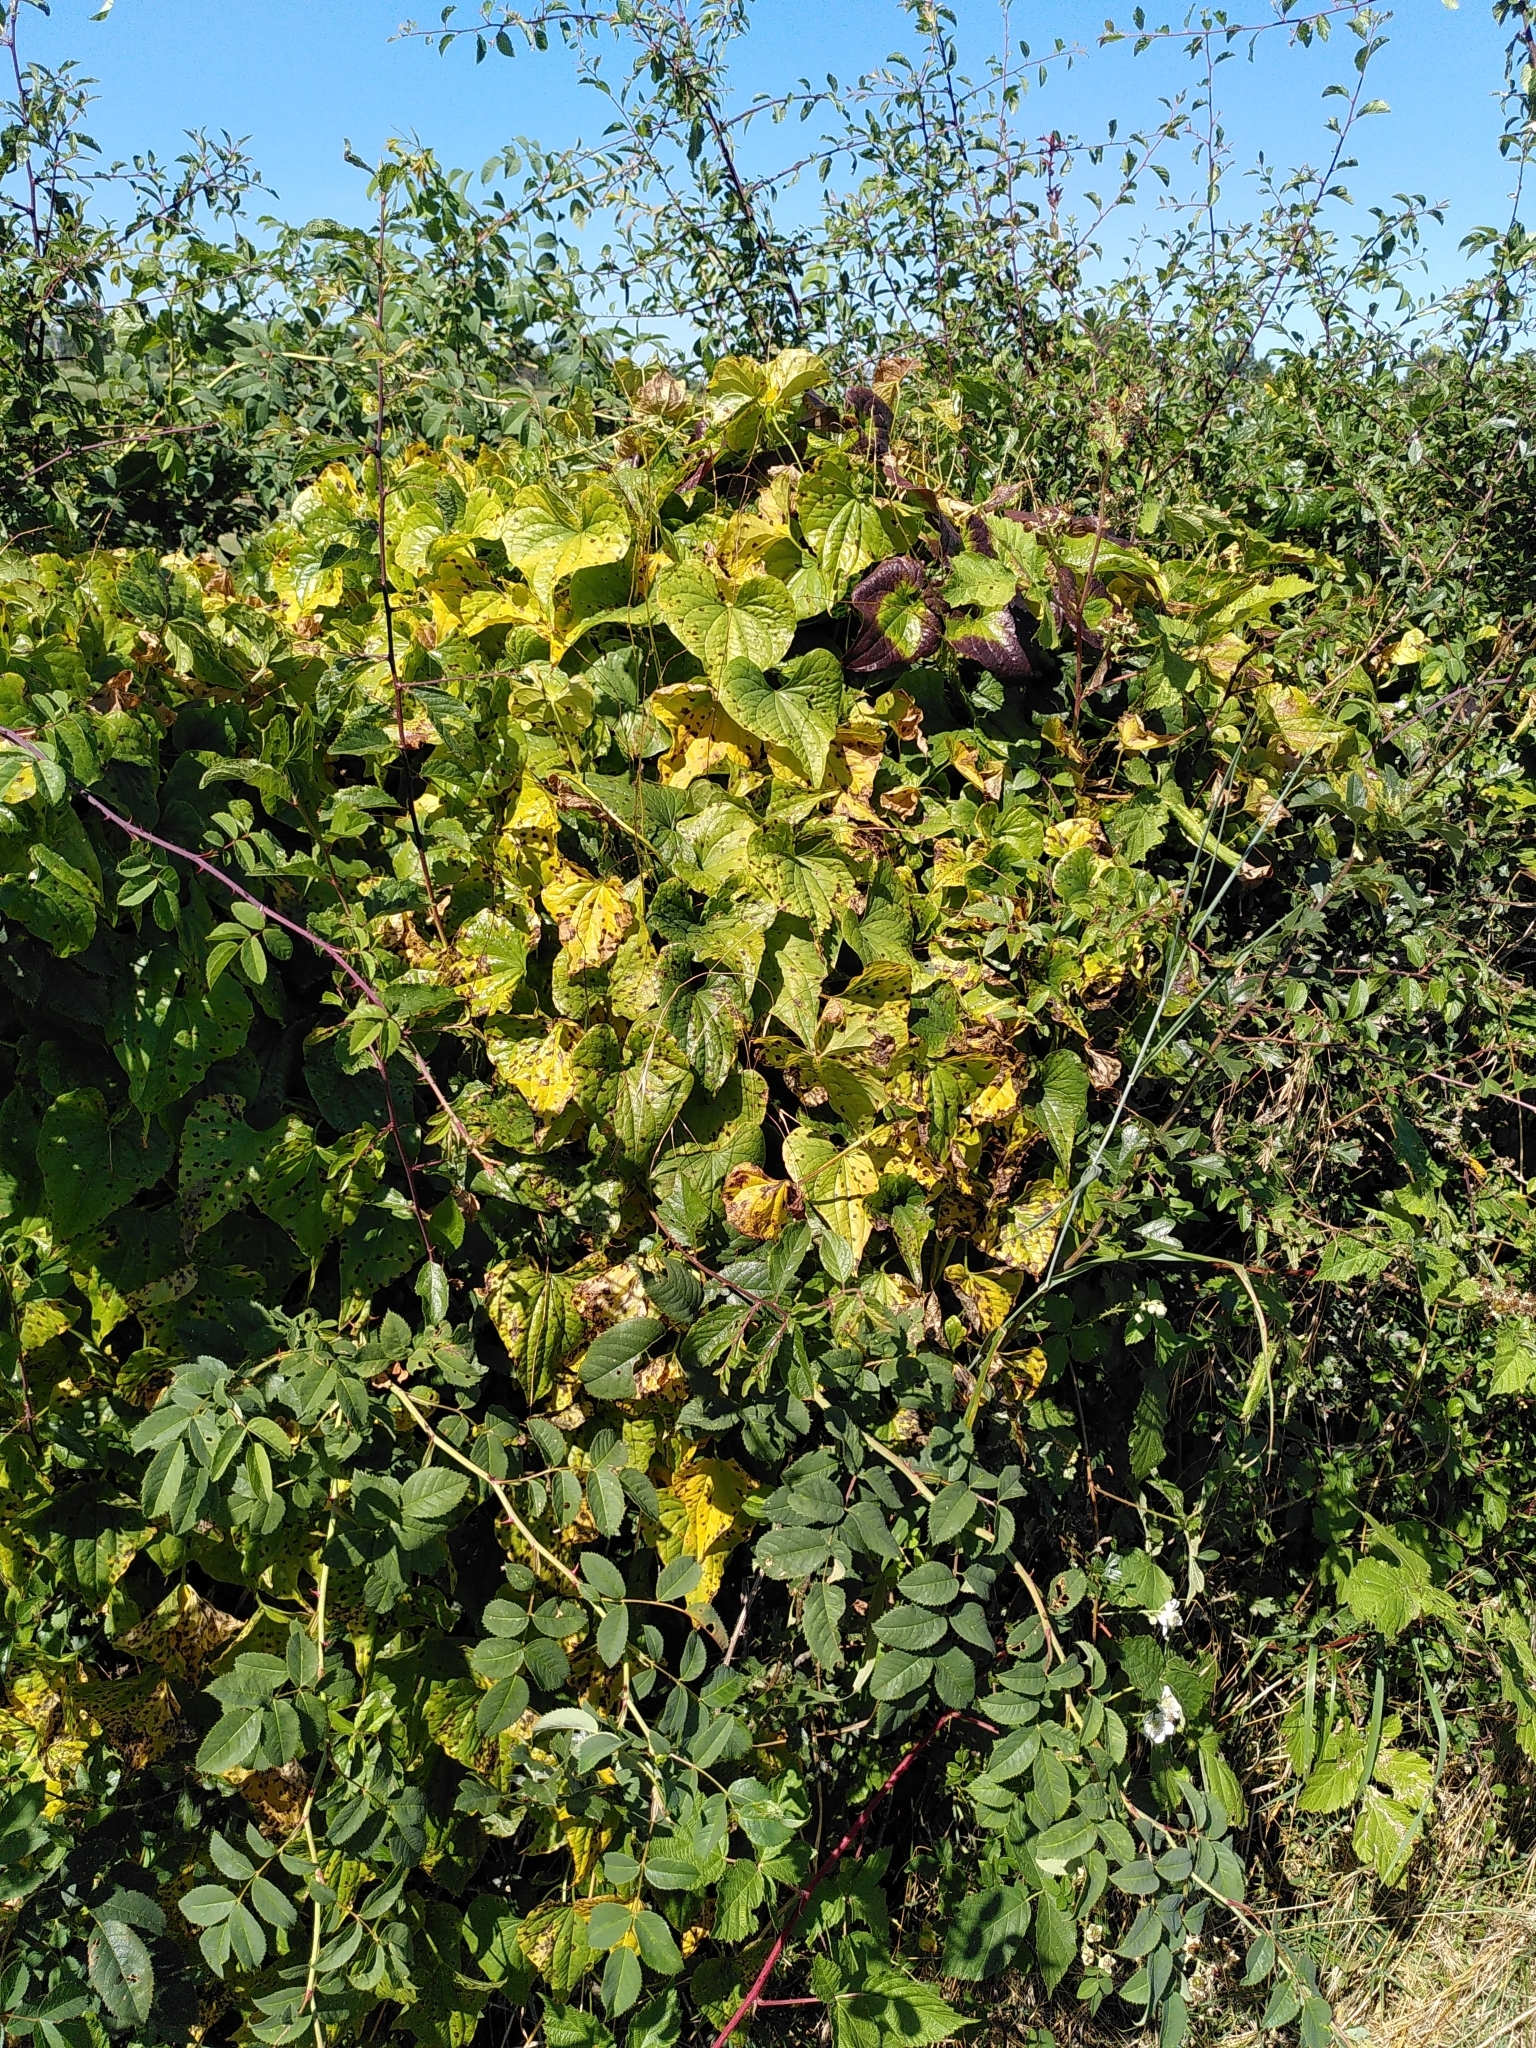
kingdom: Plantae
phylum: Tracheophyta
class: Liliopsida
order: Dioscoreales
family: Dioscoreaceae
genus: Dioscorea
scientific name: Dioscorea communis
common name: Black-bindweed
